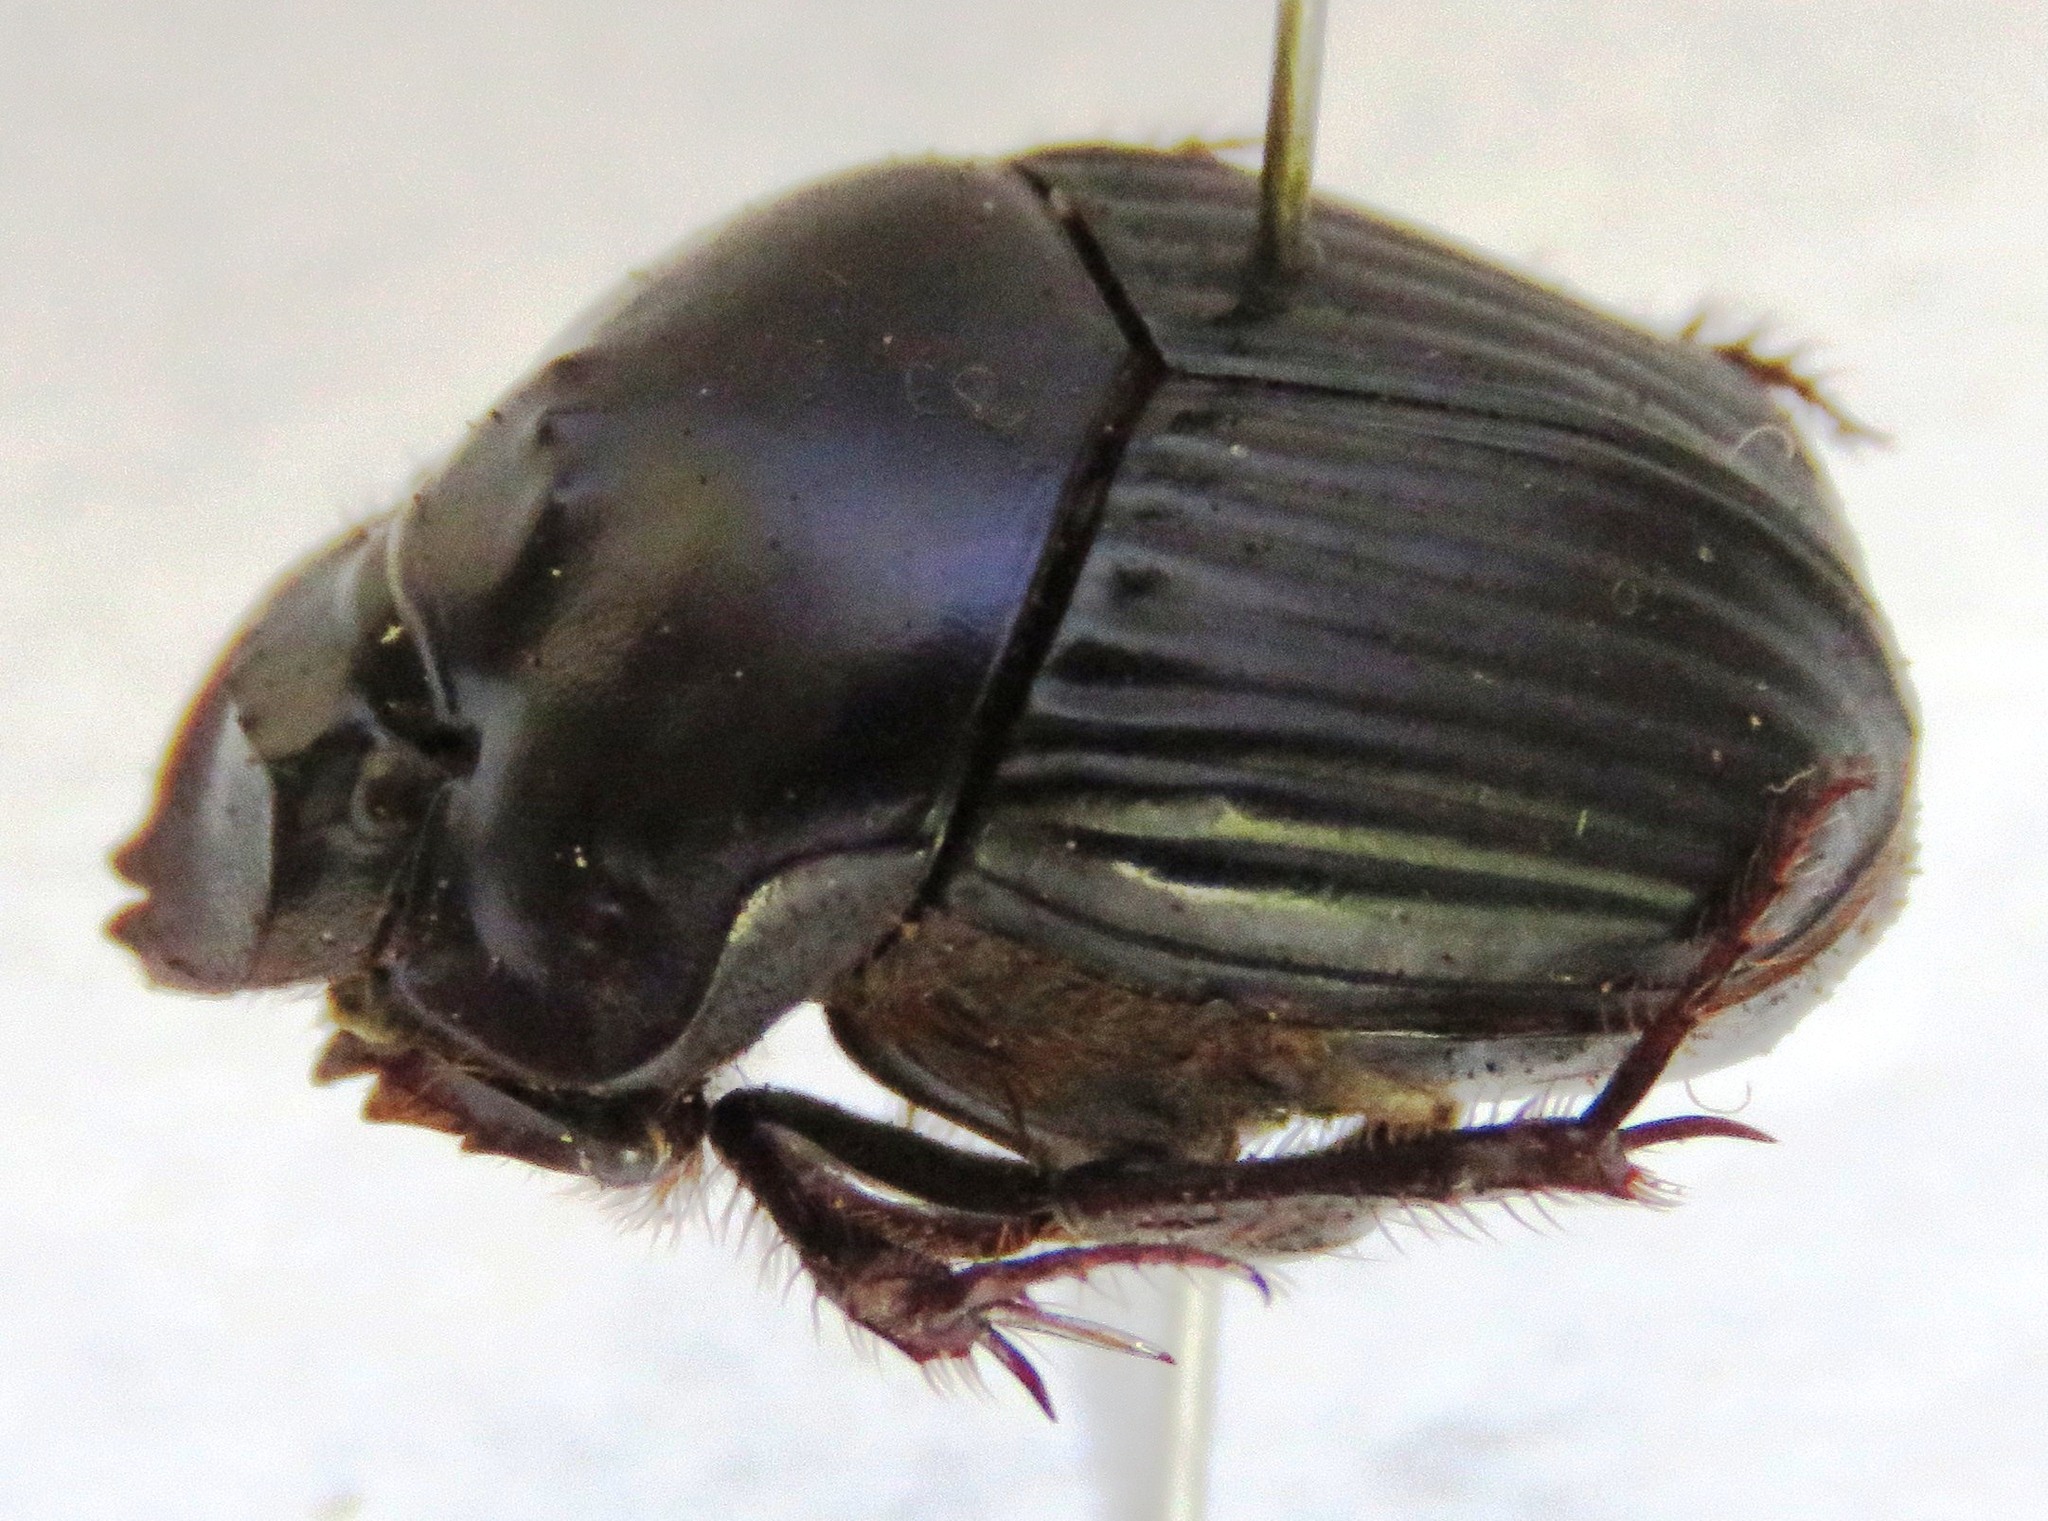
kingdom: Animalia
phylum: Arthropoda
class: Insecta
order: Coleoptera
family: Scarabaeidae
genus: Phanaeus
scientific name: Phanaeus pyrois
